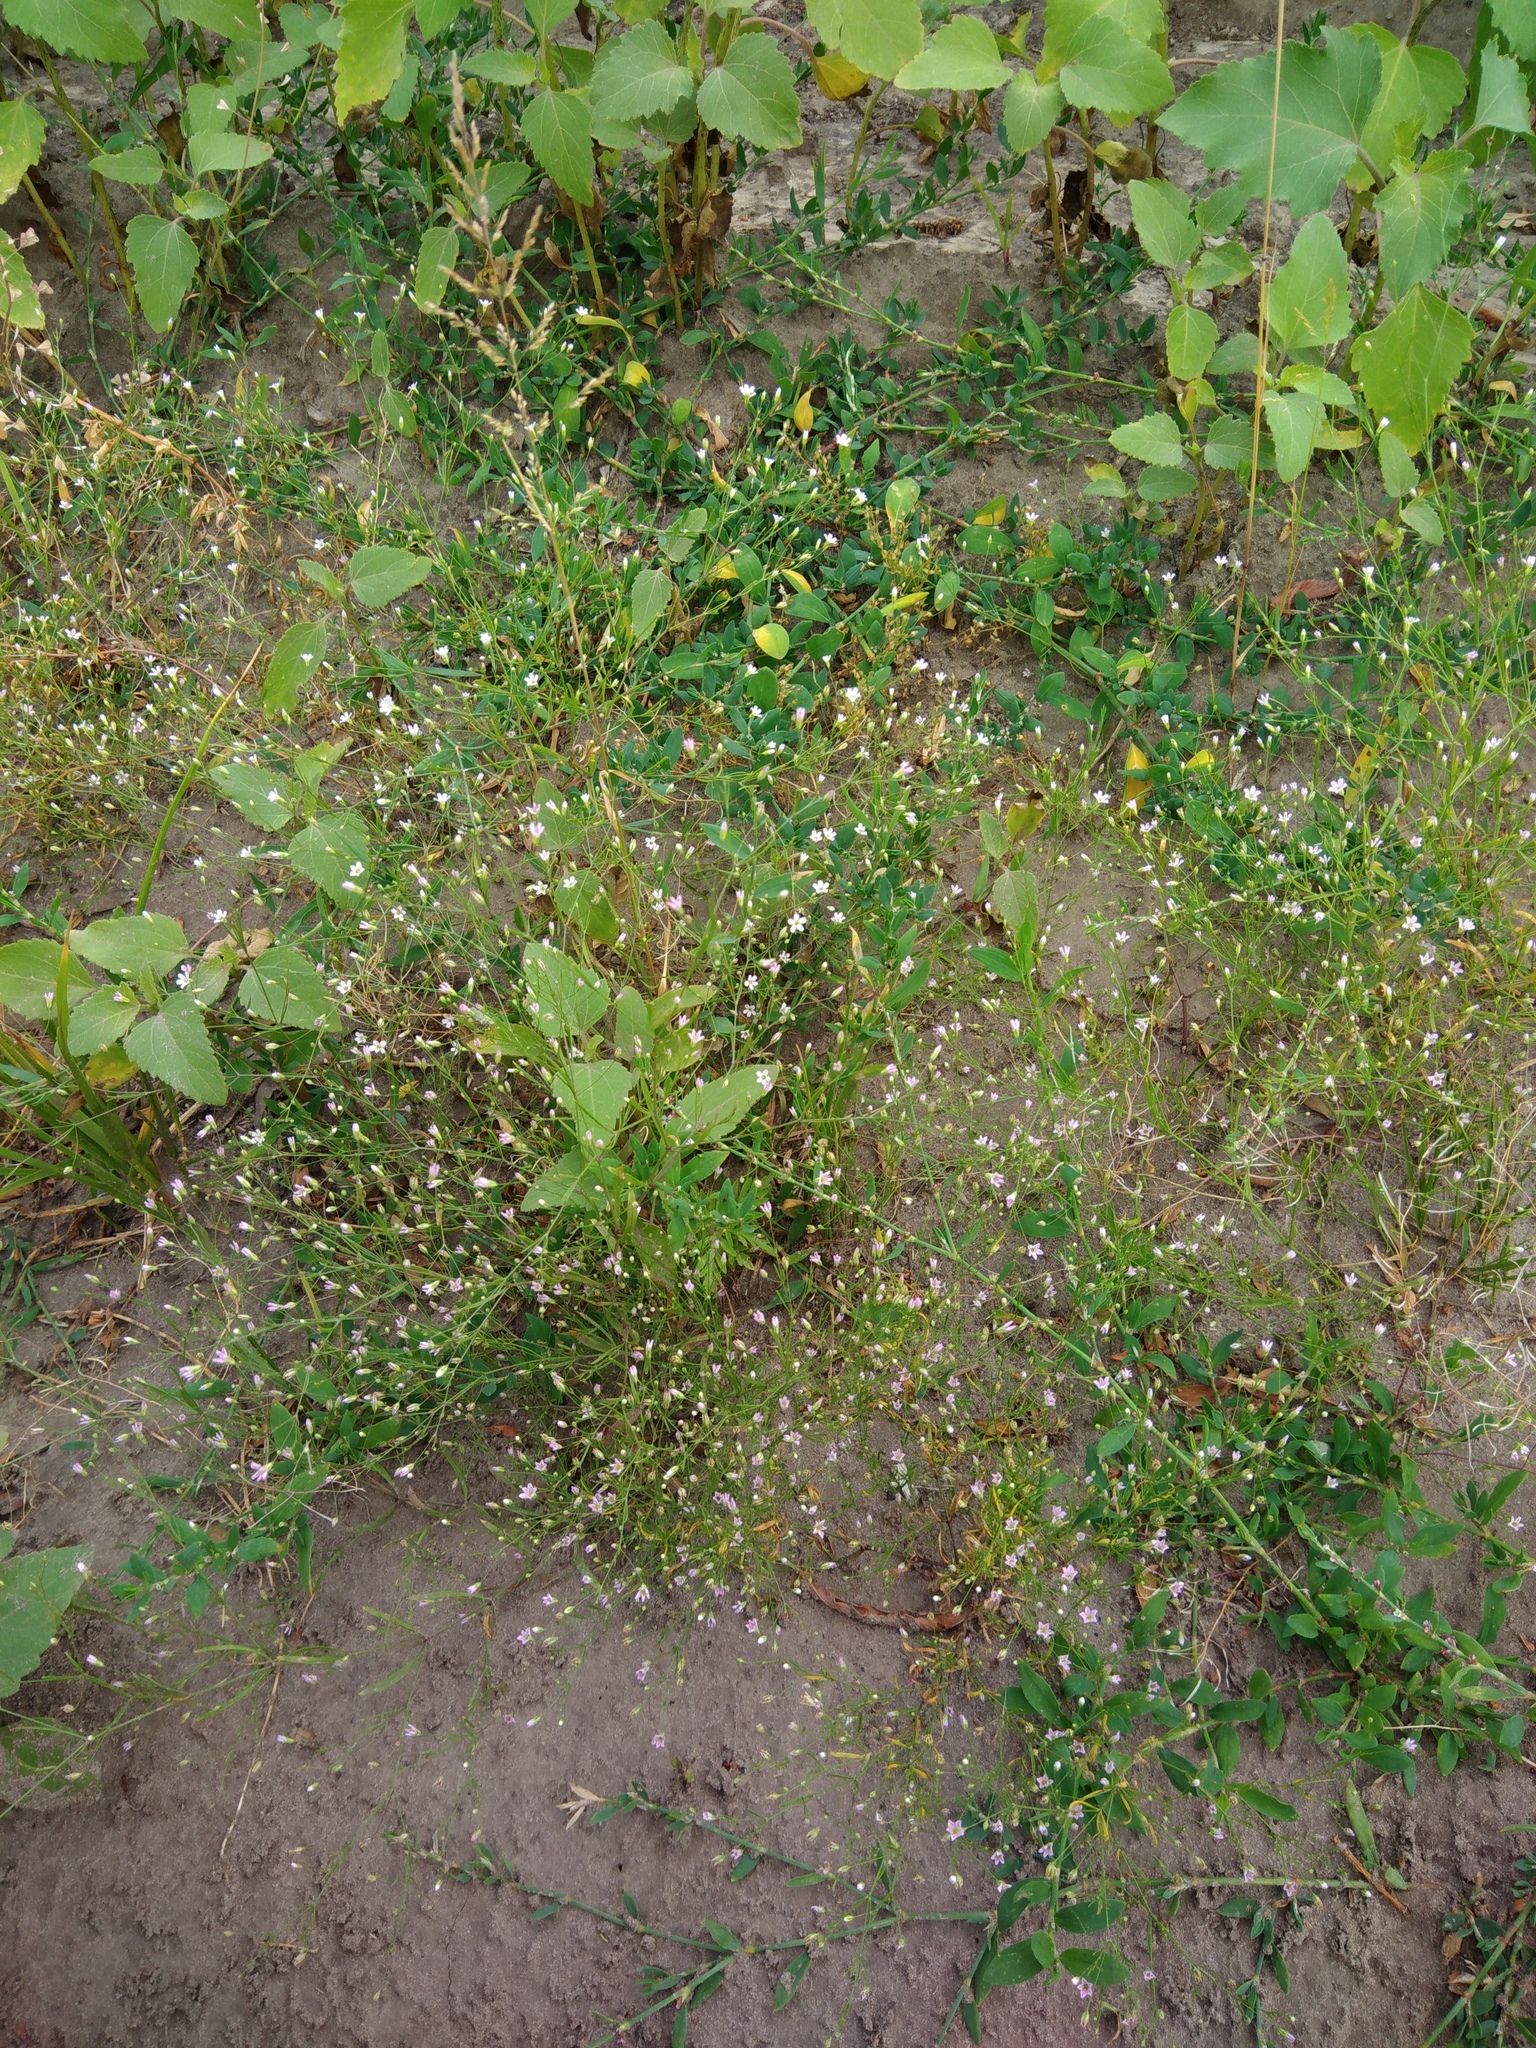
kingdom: Plantae
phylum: Tracheophyta
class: Magnoliopsida
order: Caryophyllales
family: Caryophyllaceae
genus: Psammophiliella
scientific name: Psammophiliella muralis
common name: Cushion baby's-breath
